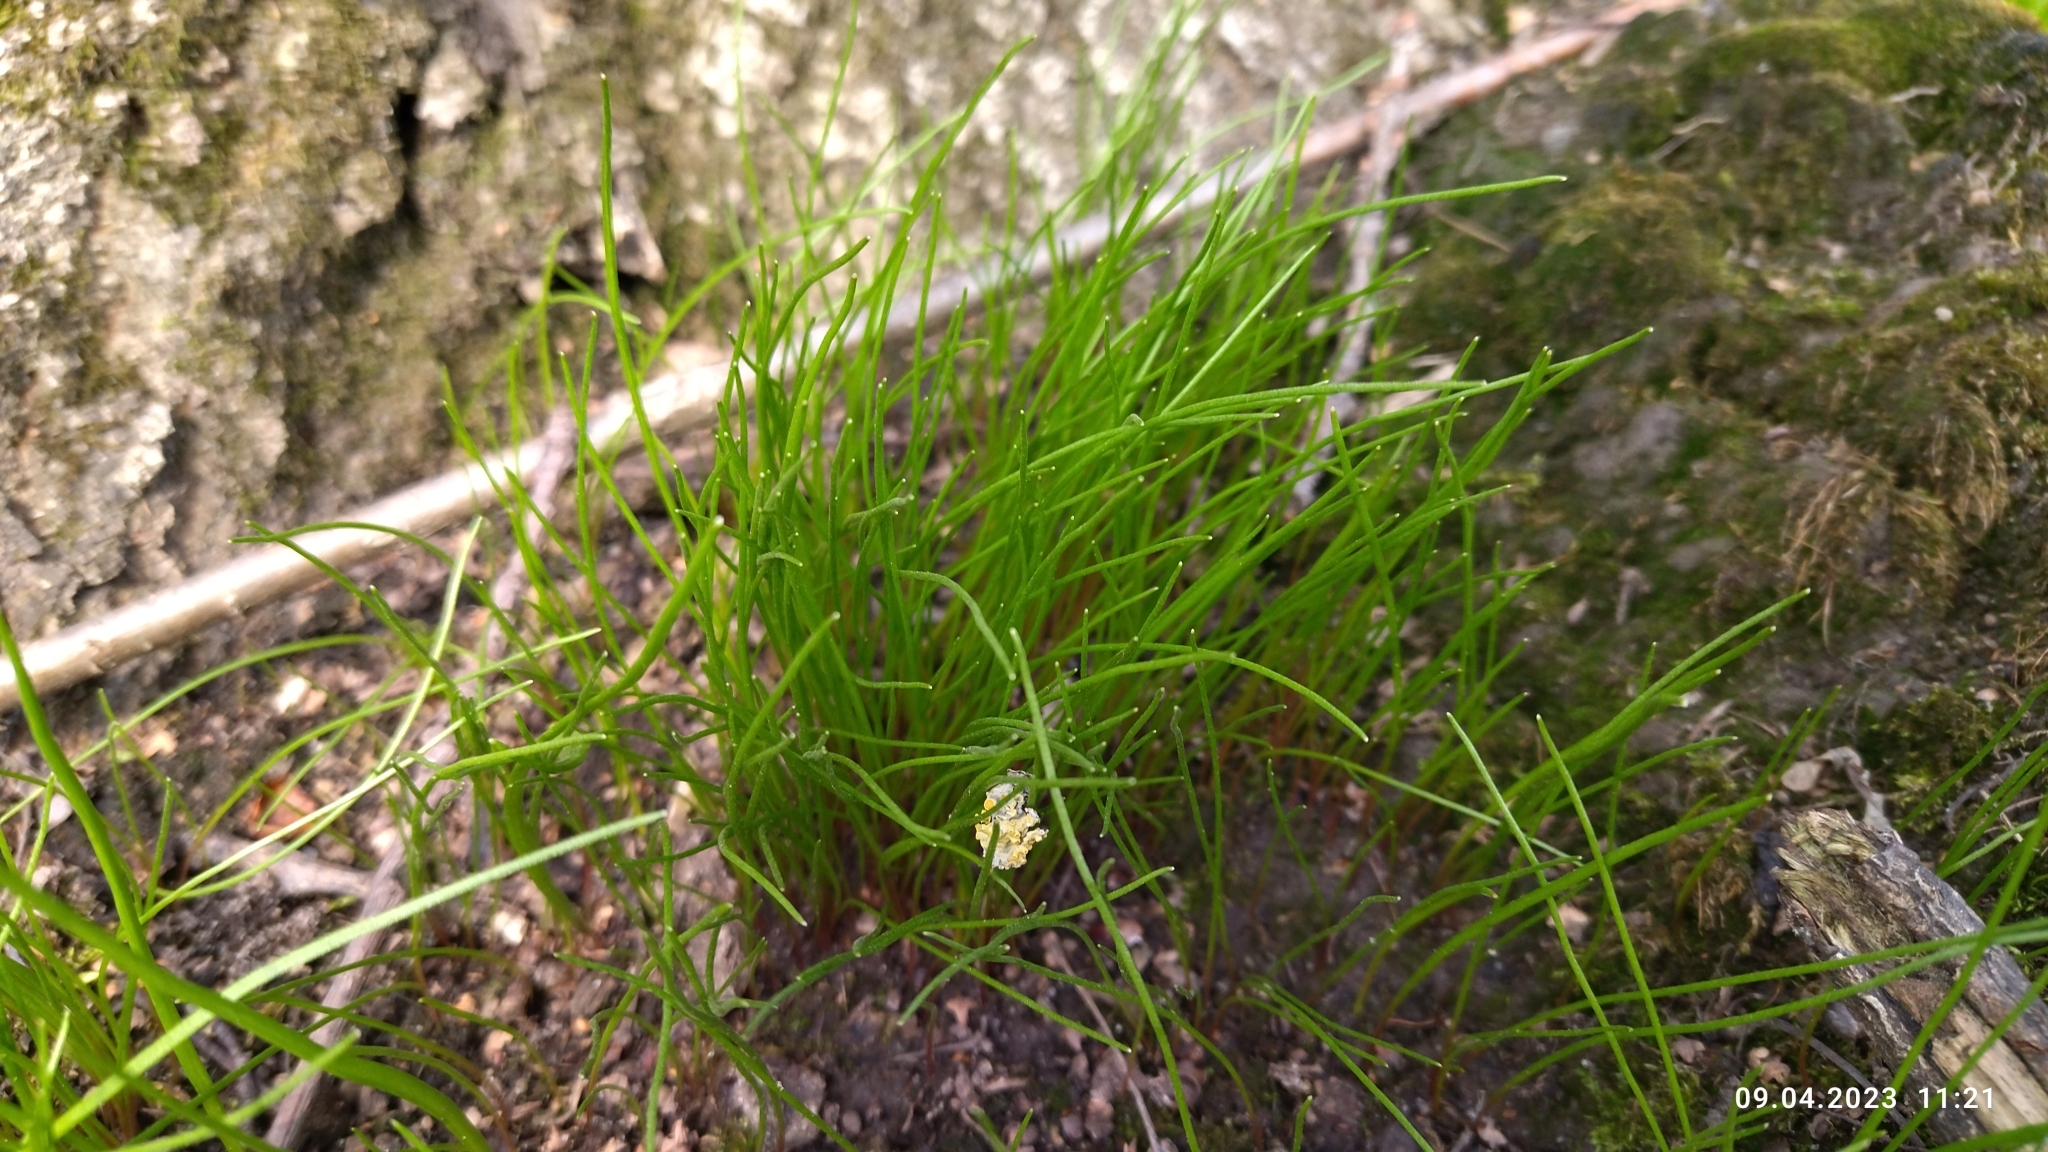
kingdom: Plantae
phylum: Tracheophyta
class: Liliopsida
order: Liliales
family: Liliaceae
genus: Gagea
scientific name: Gagea minima
